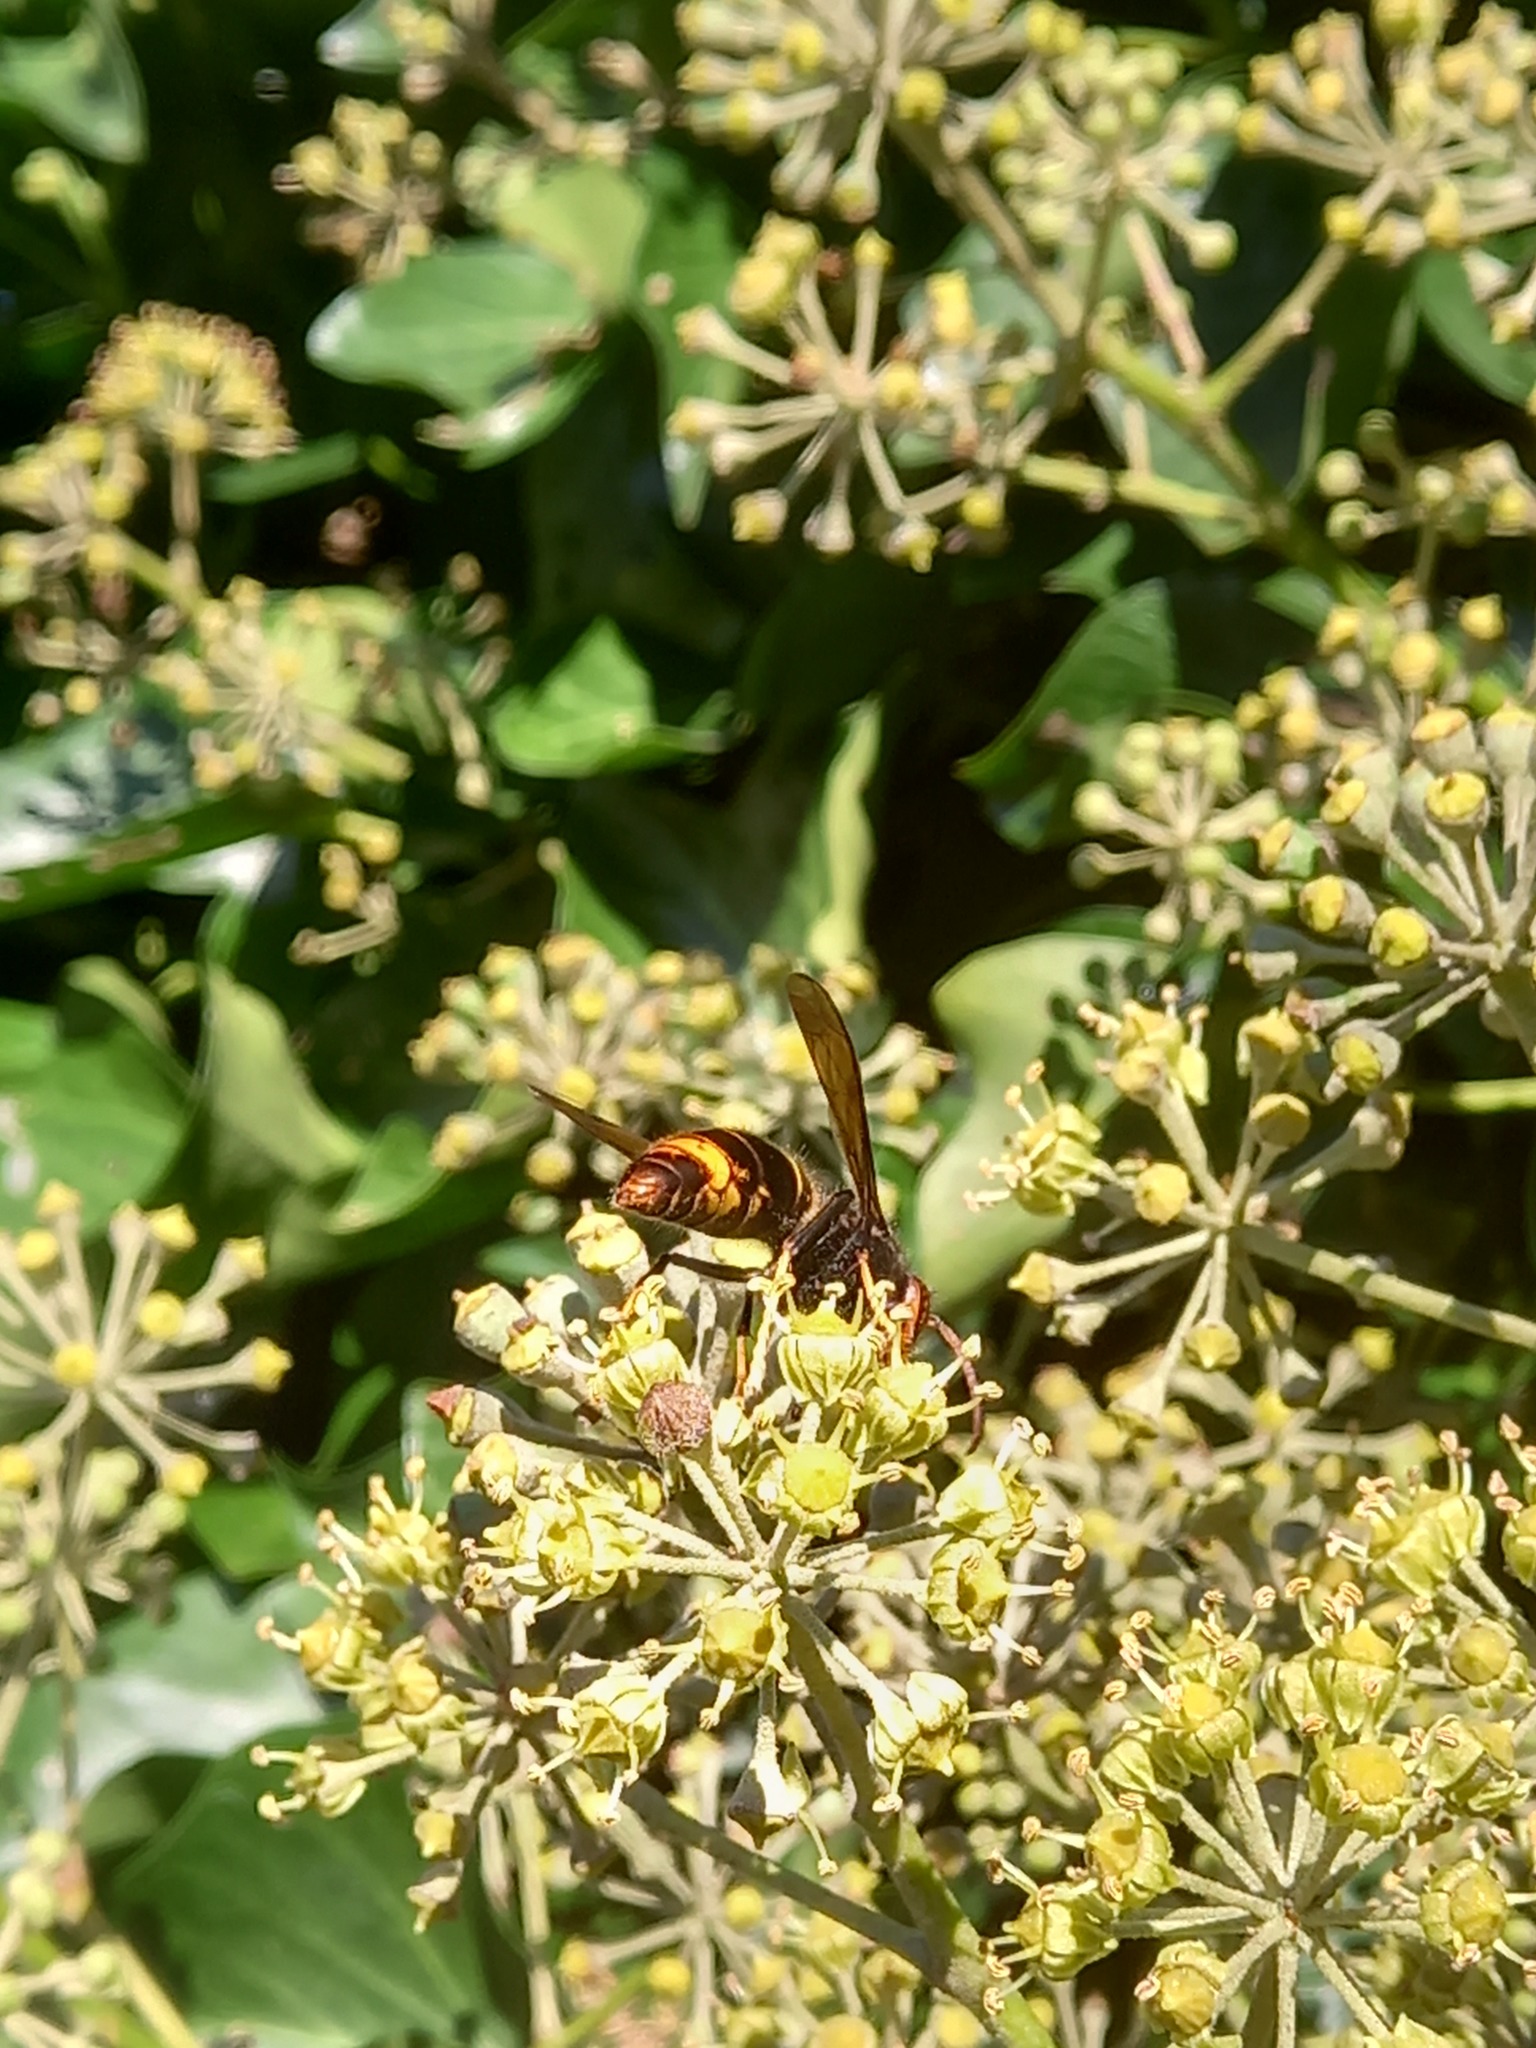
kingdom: Animalia
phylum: Arthropoda
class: Insecta
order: Hymenoptera
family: Vespidae
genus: Vespa
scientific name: Vespa velutina
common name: Asian hornet
